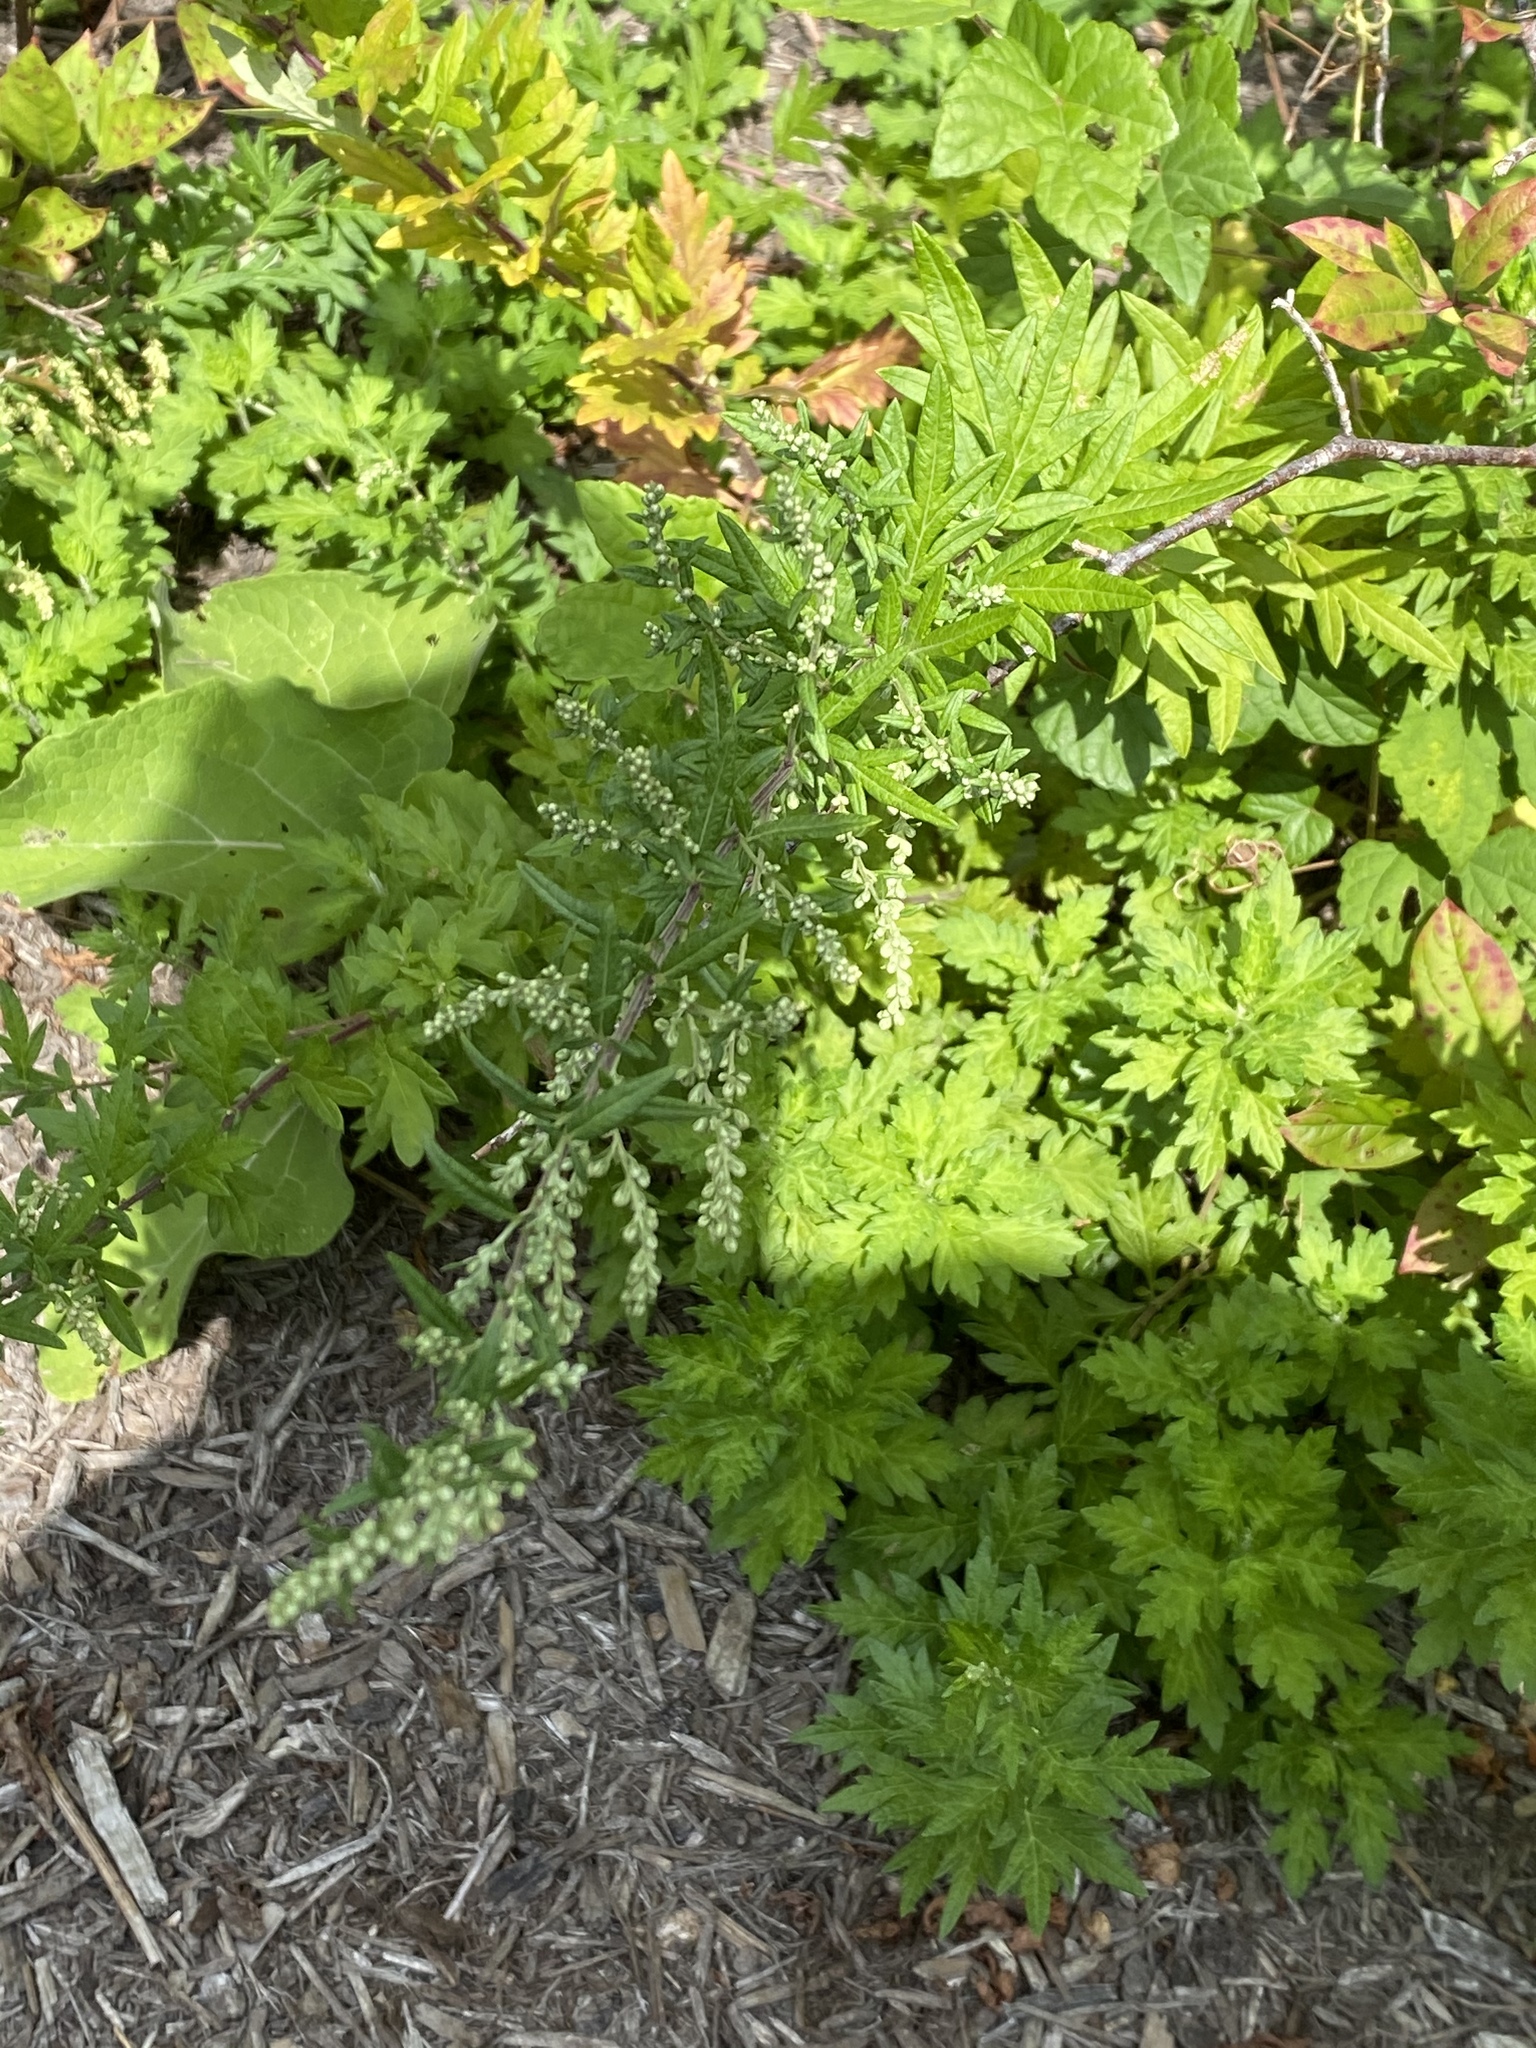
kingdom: Plantae
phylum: Tracheophyta
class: Magnoliopsida
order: Asterales
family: Asteraceae
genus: Artemisia
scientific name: Artemisia vulgaris
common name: Mugwort
